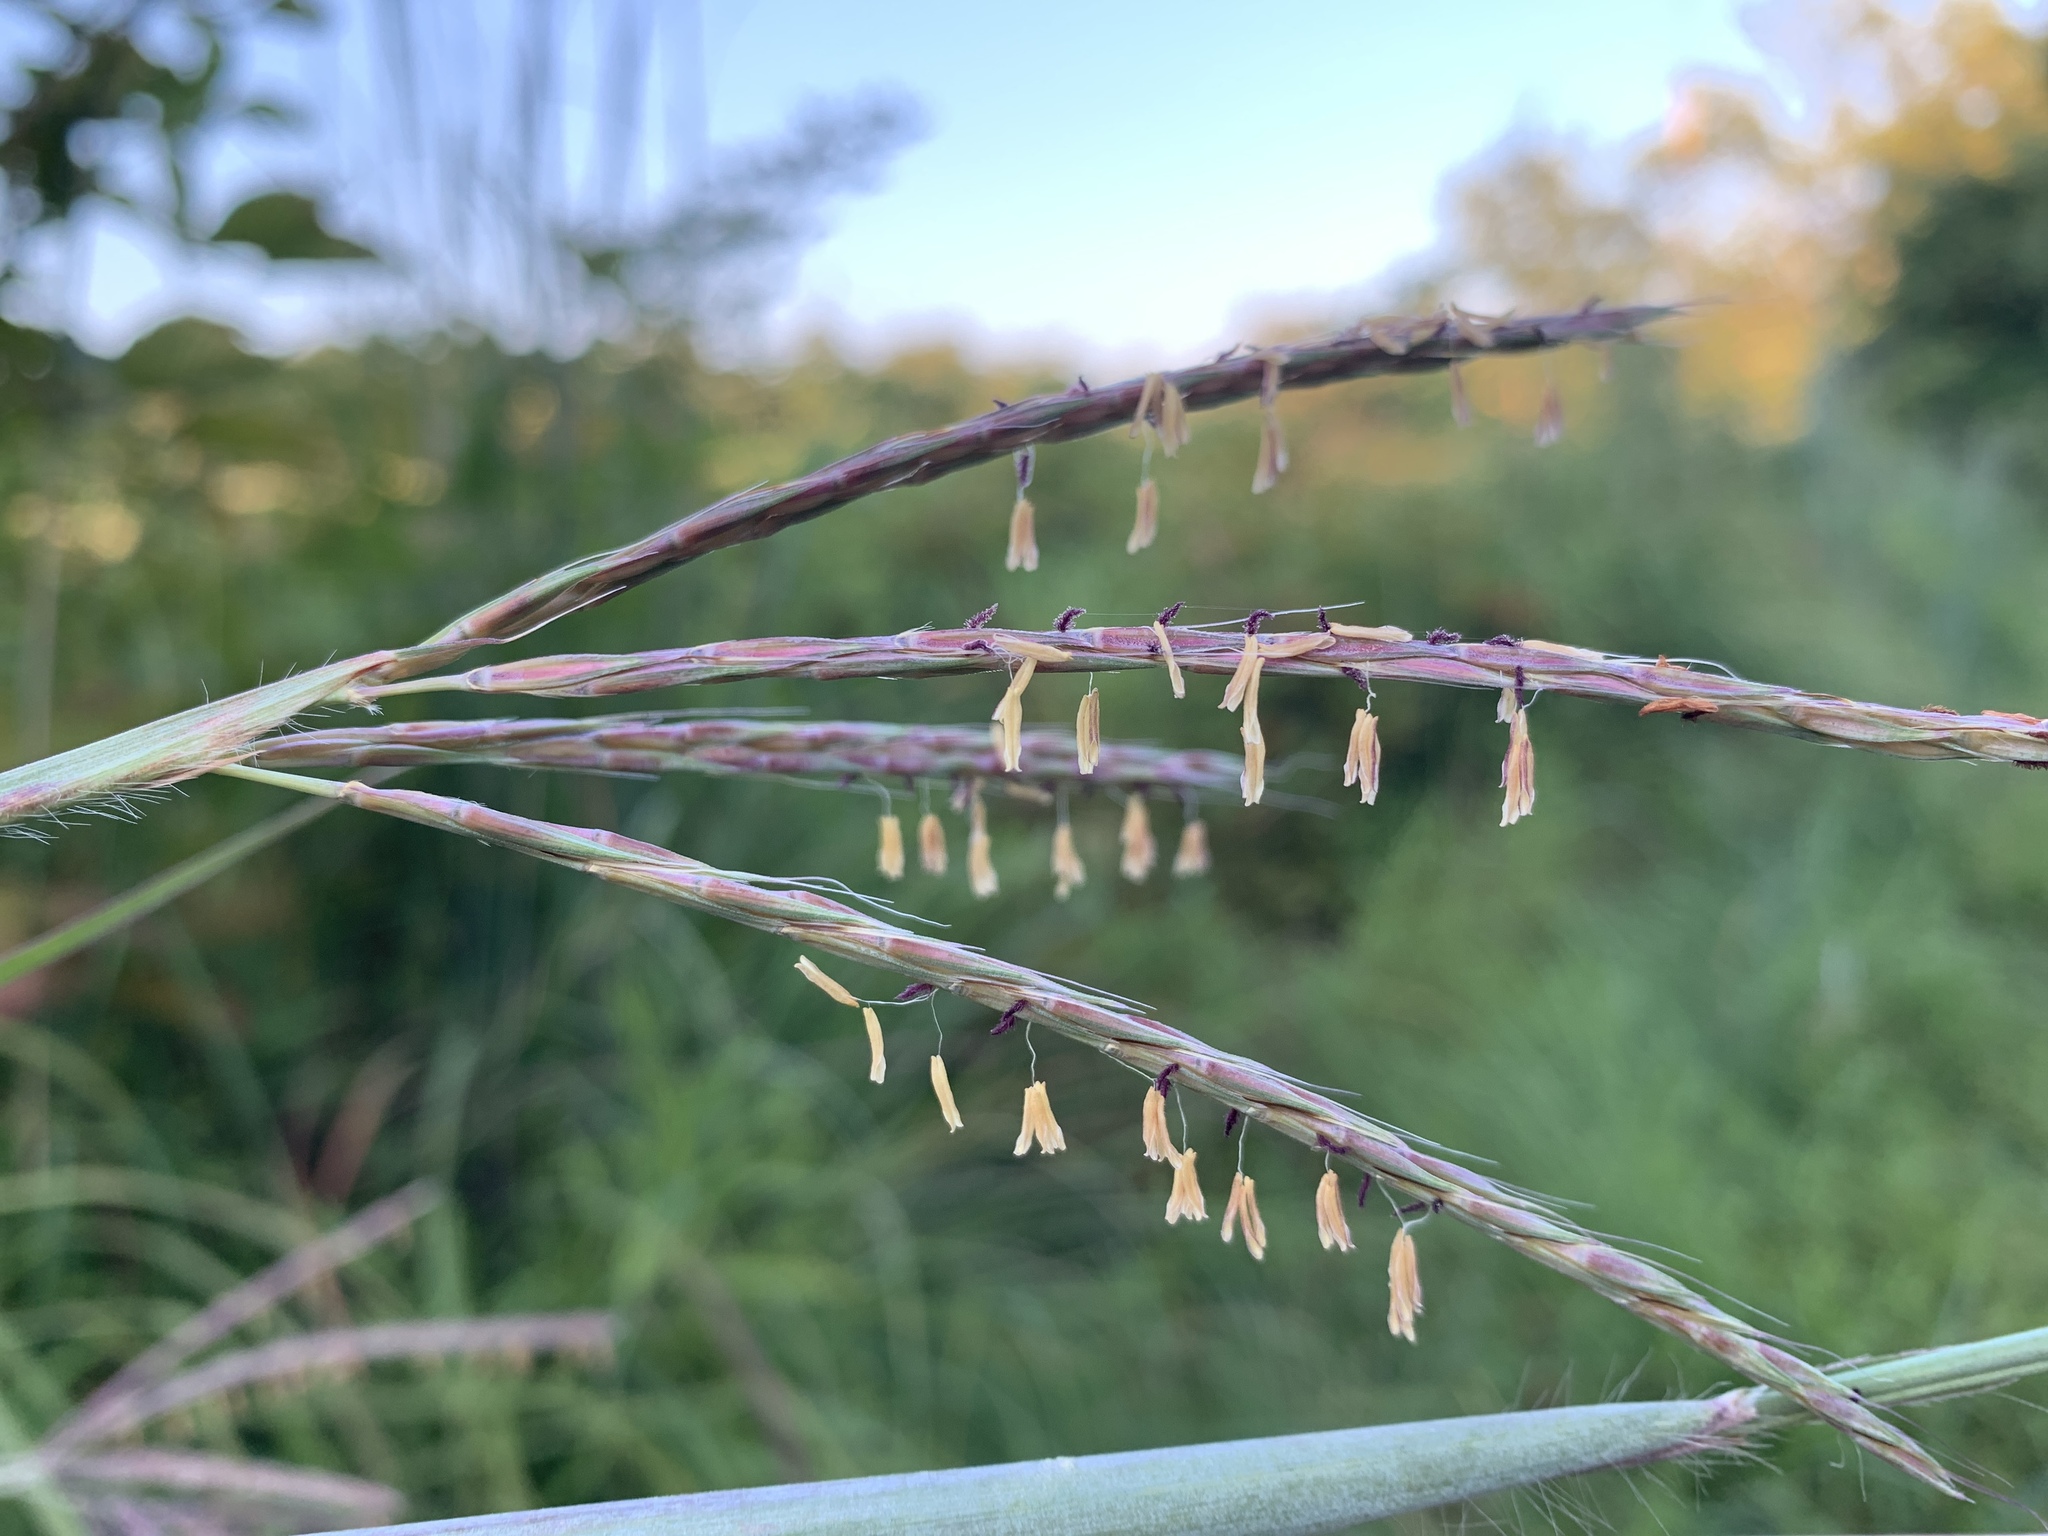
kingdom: Plantae
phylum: Tracheophyta
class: Liliopsida
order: Poales
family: Poaceae
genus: Andropogon
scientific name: Andropogon gerardi
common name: Big bluestem
